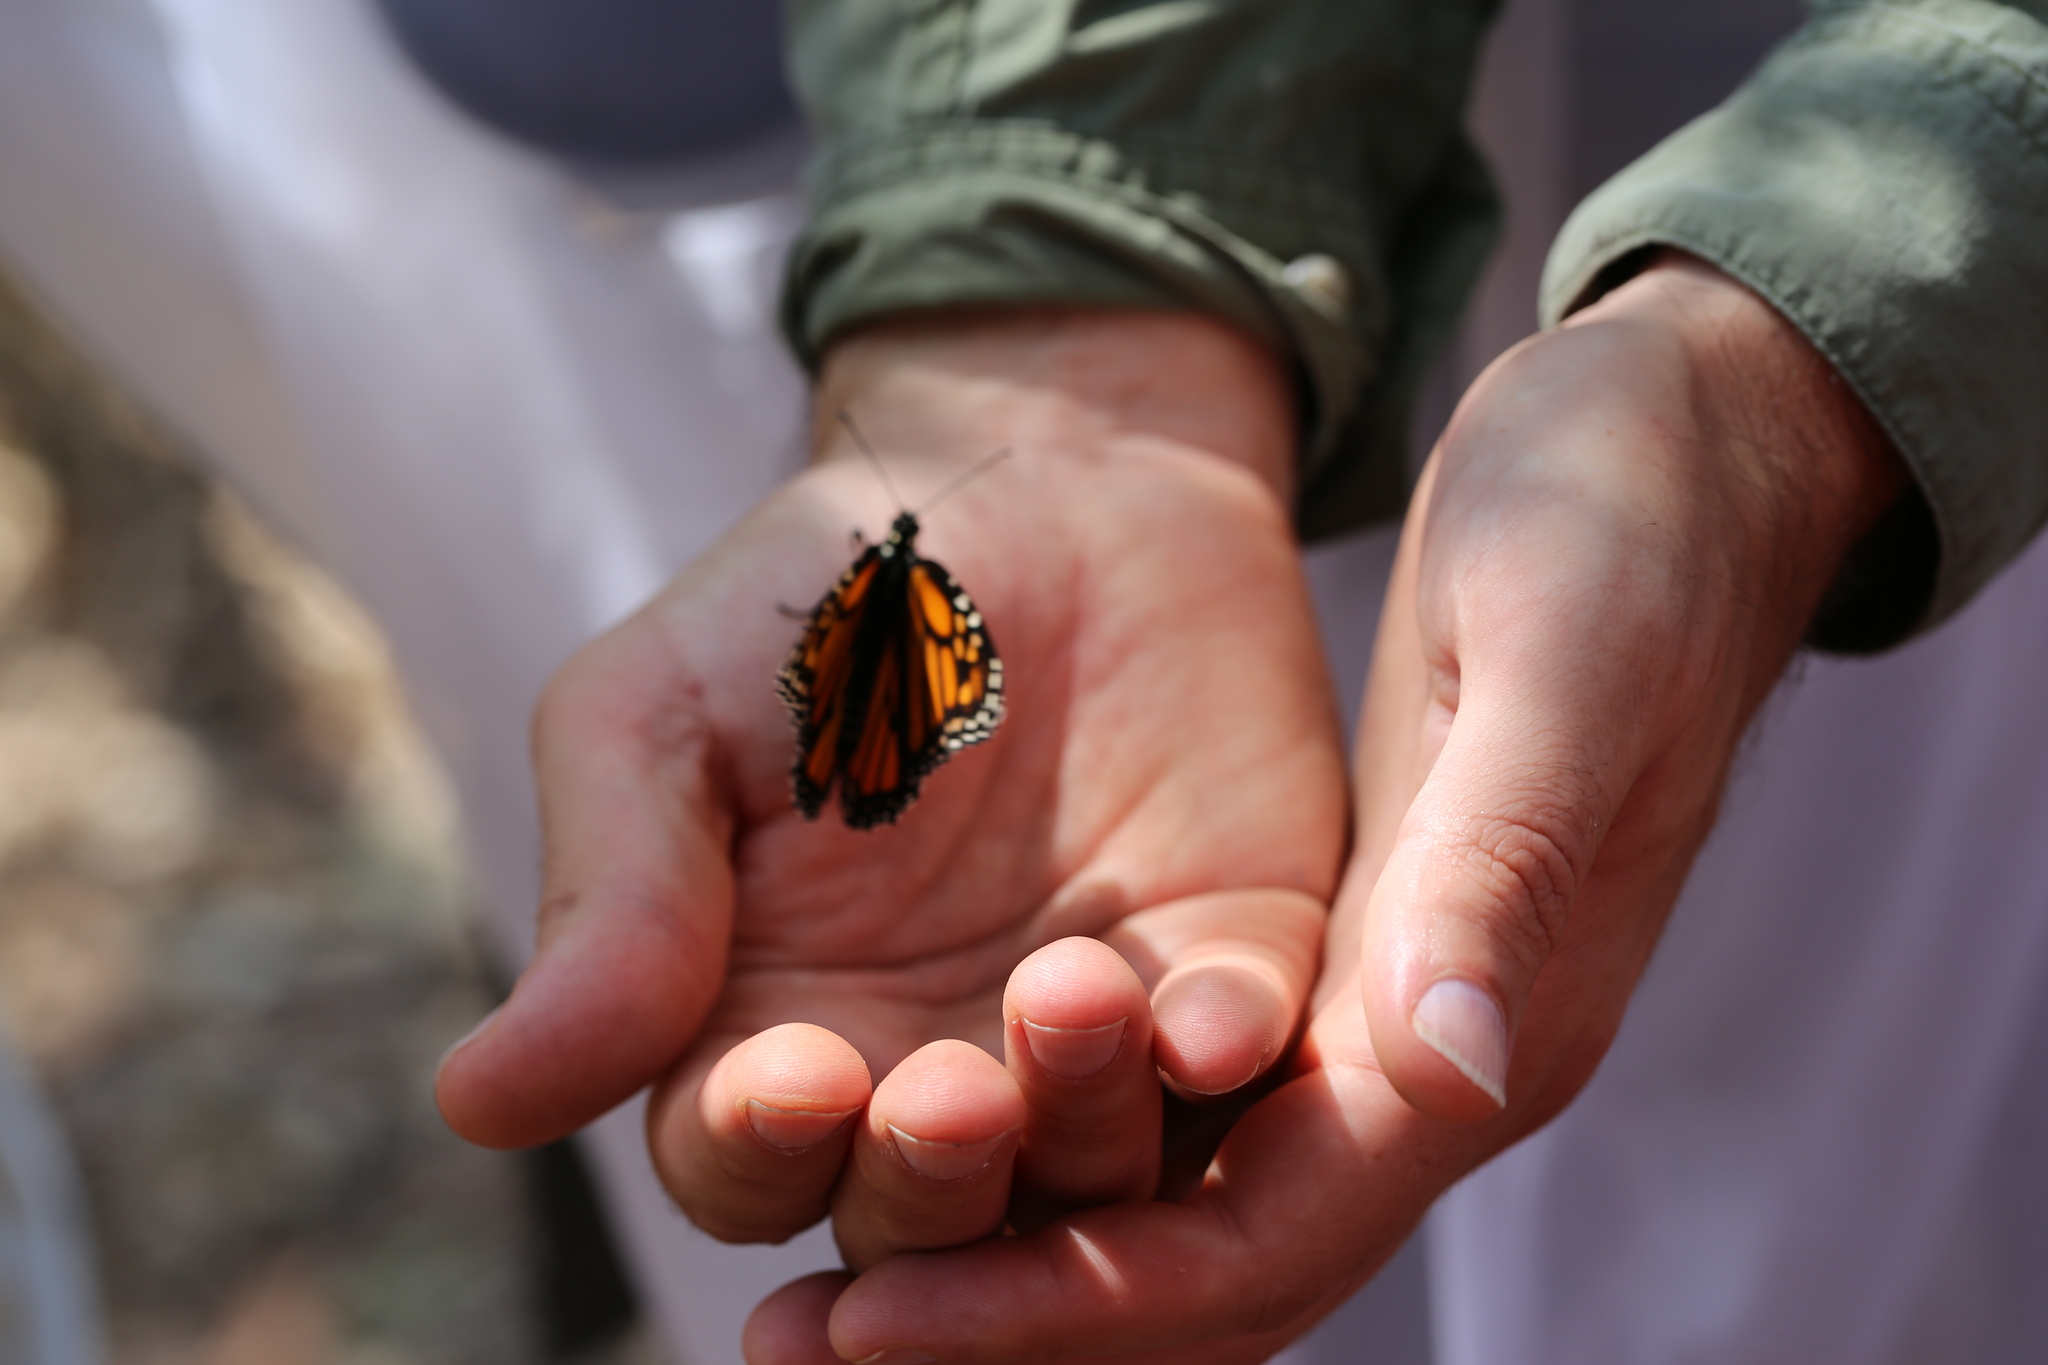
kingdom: Animalia
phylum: Arthropoda
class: Insecta
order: Lepidoptera
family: Nymphalidae
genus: Danaus
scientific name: Danaus plexippus
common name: Monarch
